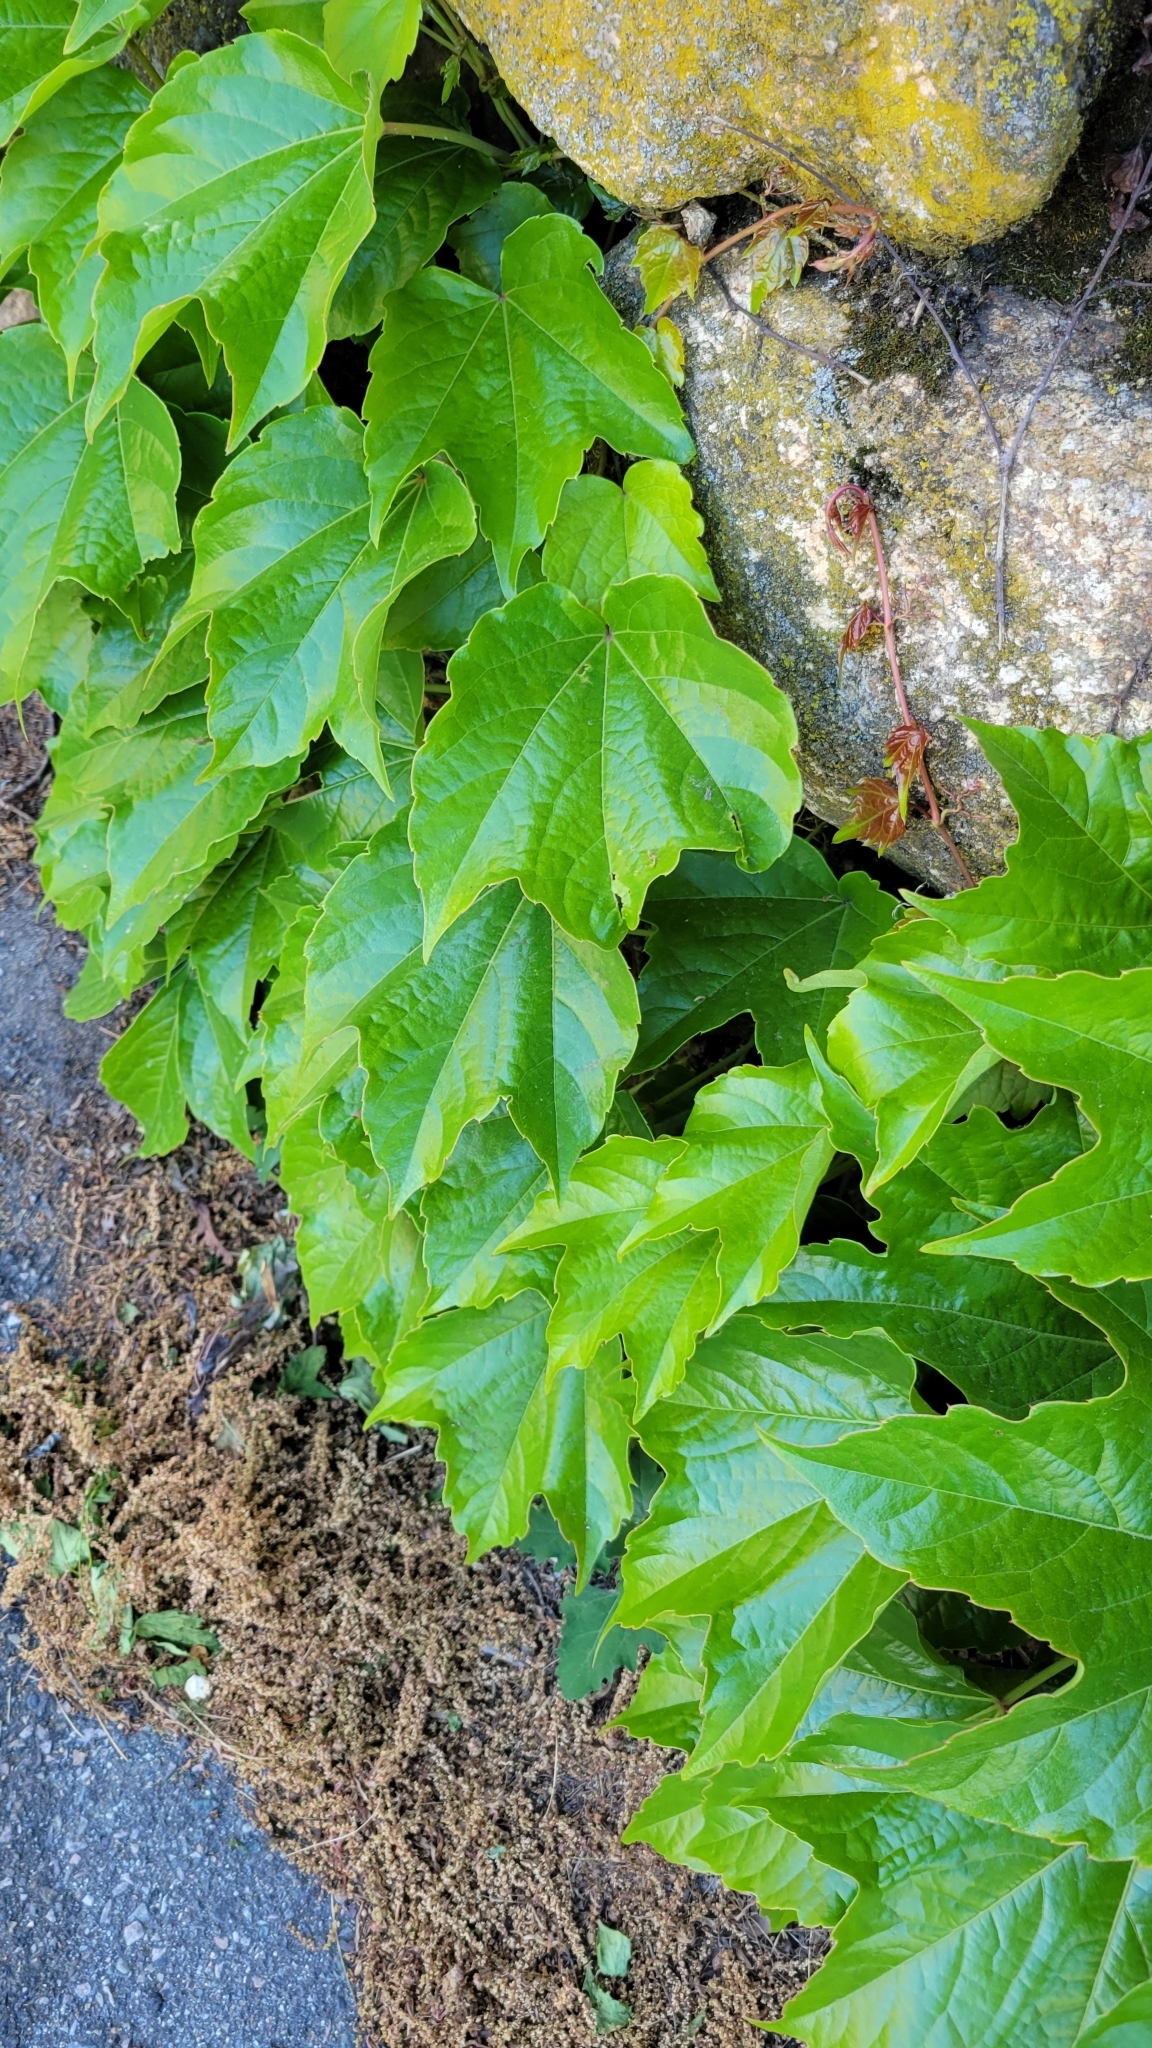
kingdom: Plantae
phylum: Tracheophyta
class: Magnoliopsida
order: Vitales
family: Vitaceae
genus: Parthenocissus
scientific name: Parthenocissus tricuspidata
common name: Boston ivy
